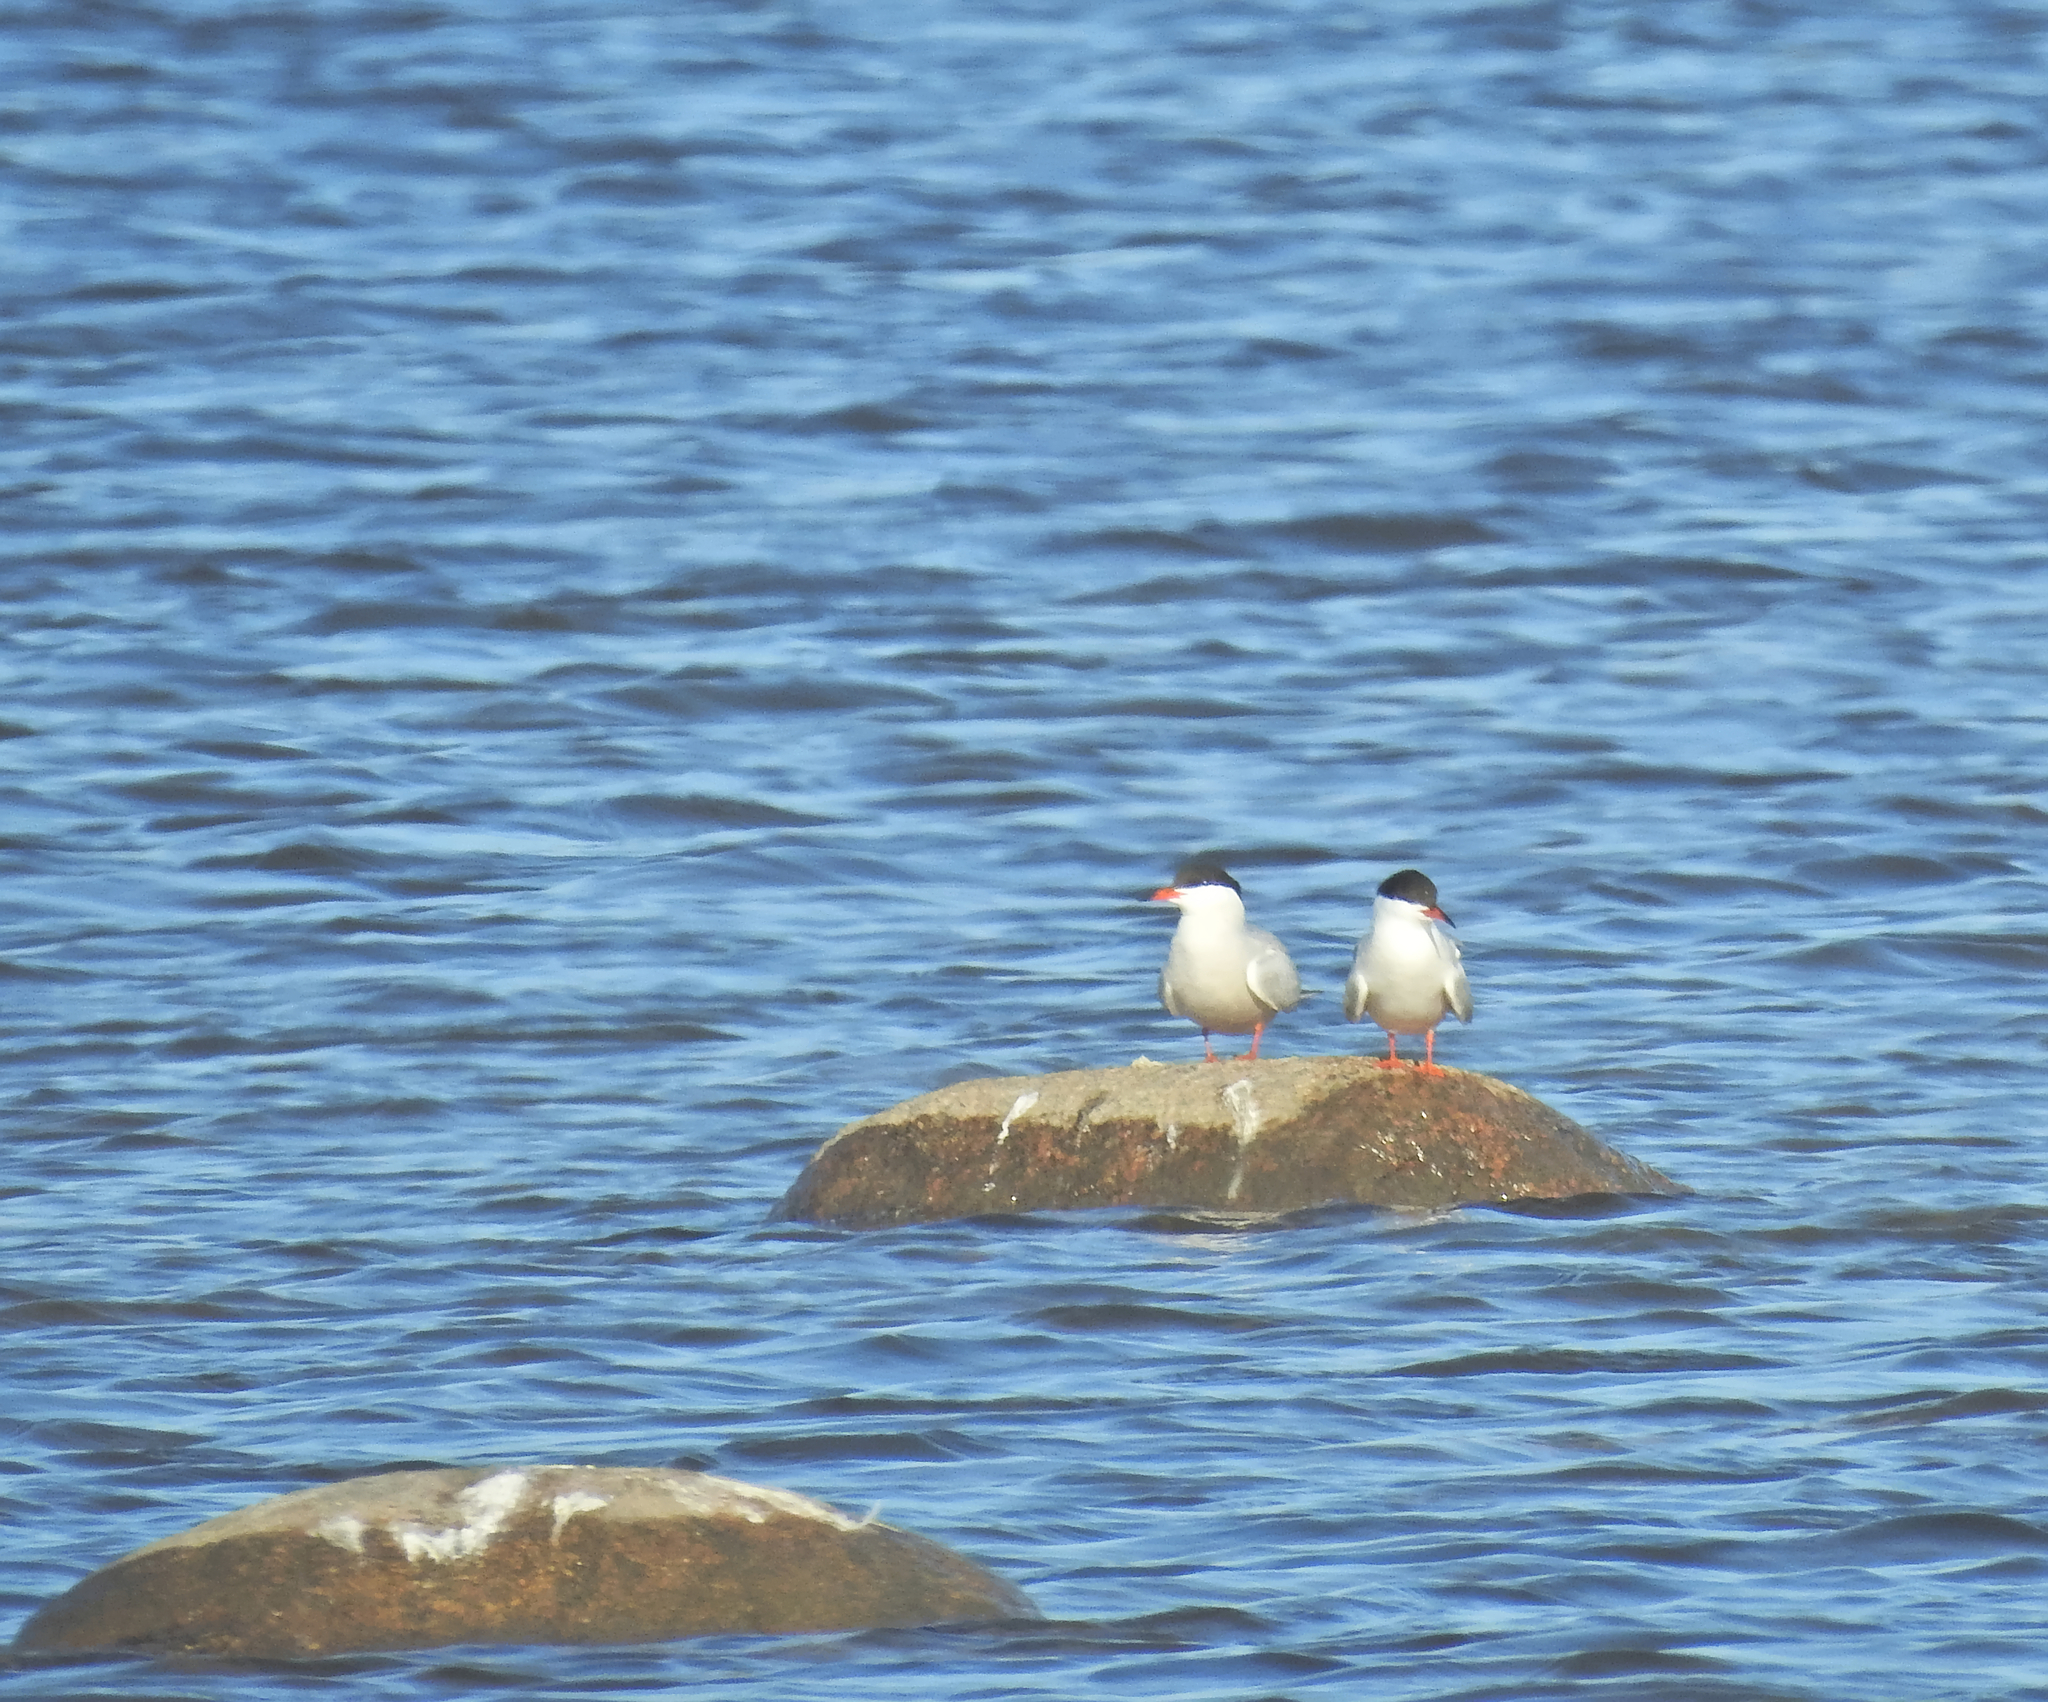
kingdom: Animalia
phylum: Chordata
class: Aves
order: Charadriiformes
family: Laridae
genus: Sterna
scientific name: Sterna hirundo
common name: Common tern
